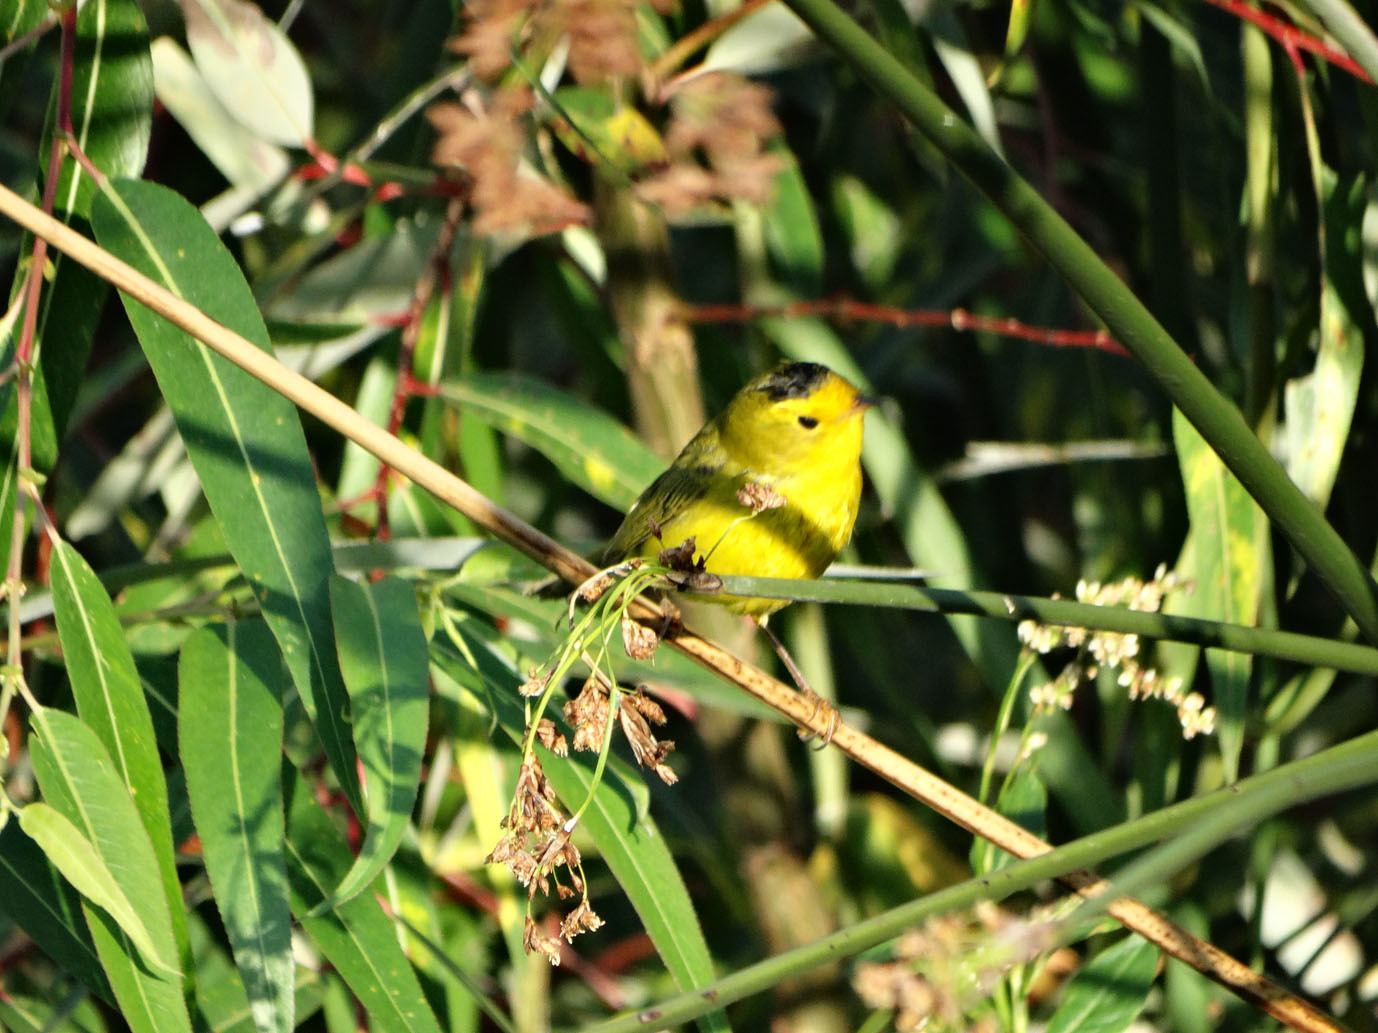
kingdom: Animalia
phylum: Chordata
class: Aves
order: Passeriformes
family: Parulidae
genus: Cardellina
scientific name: Cardellina pusilla
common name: Wilson's warbler
